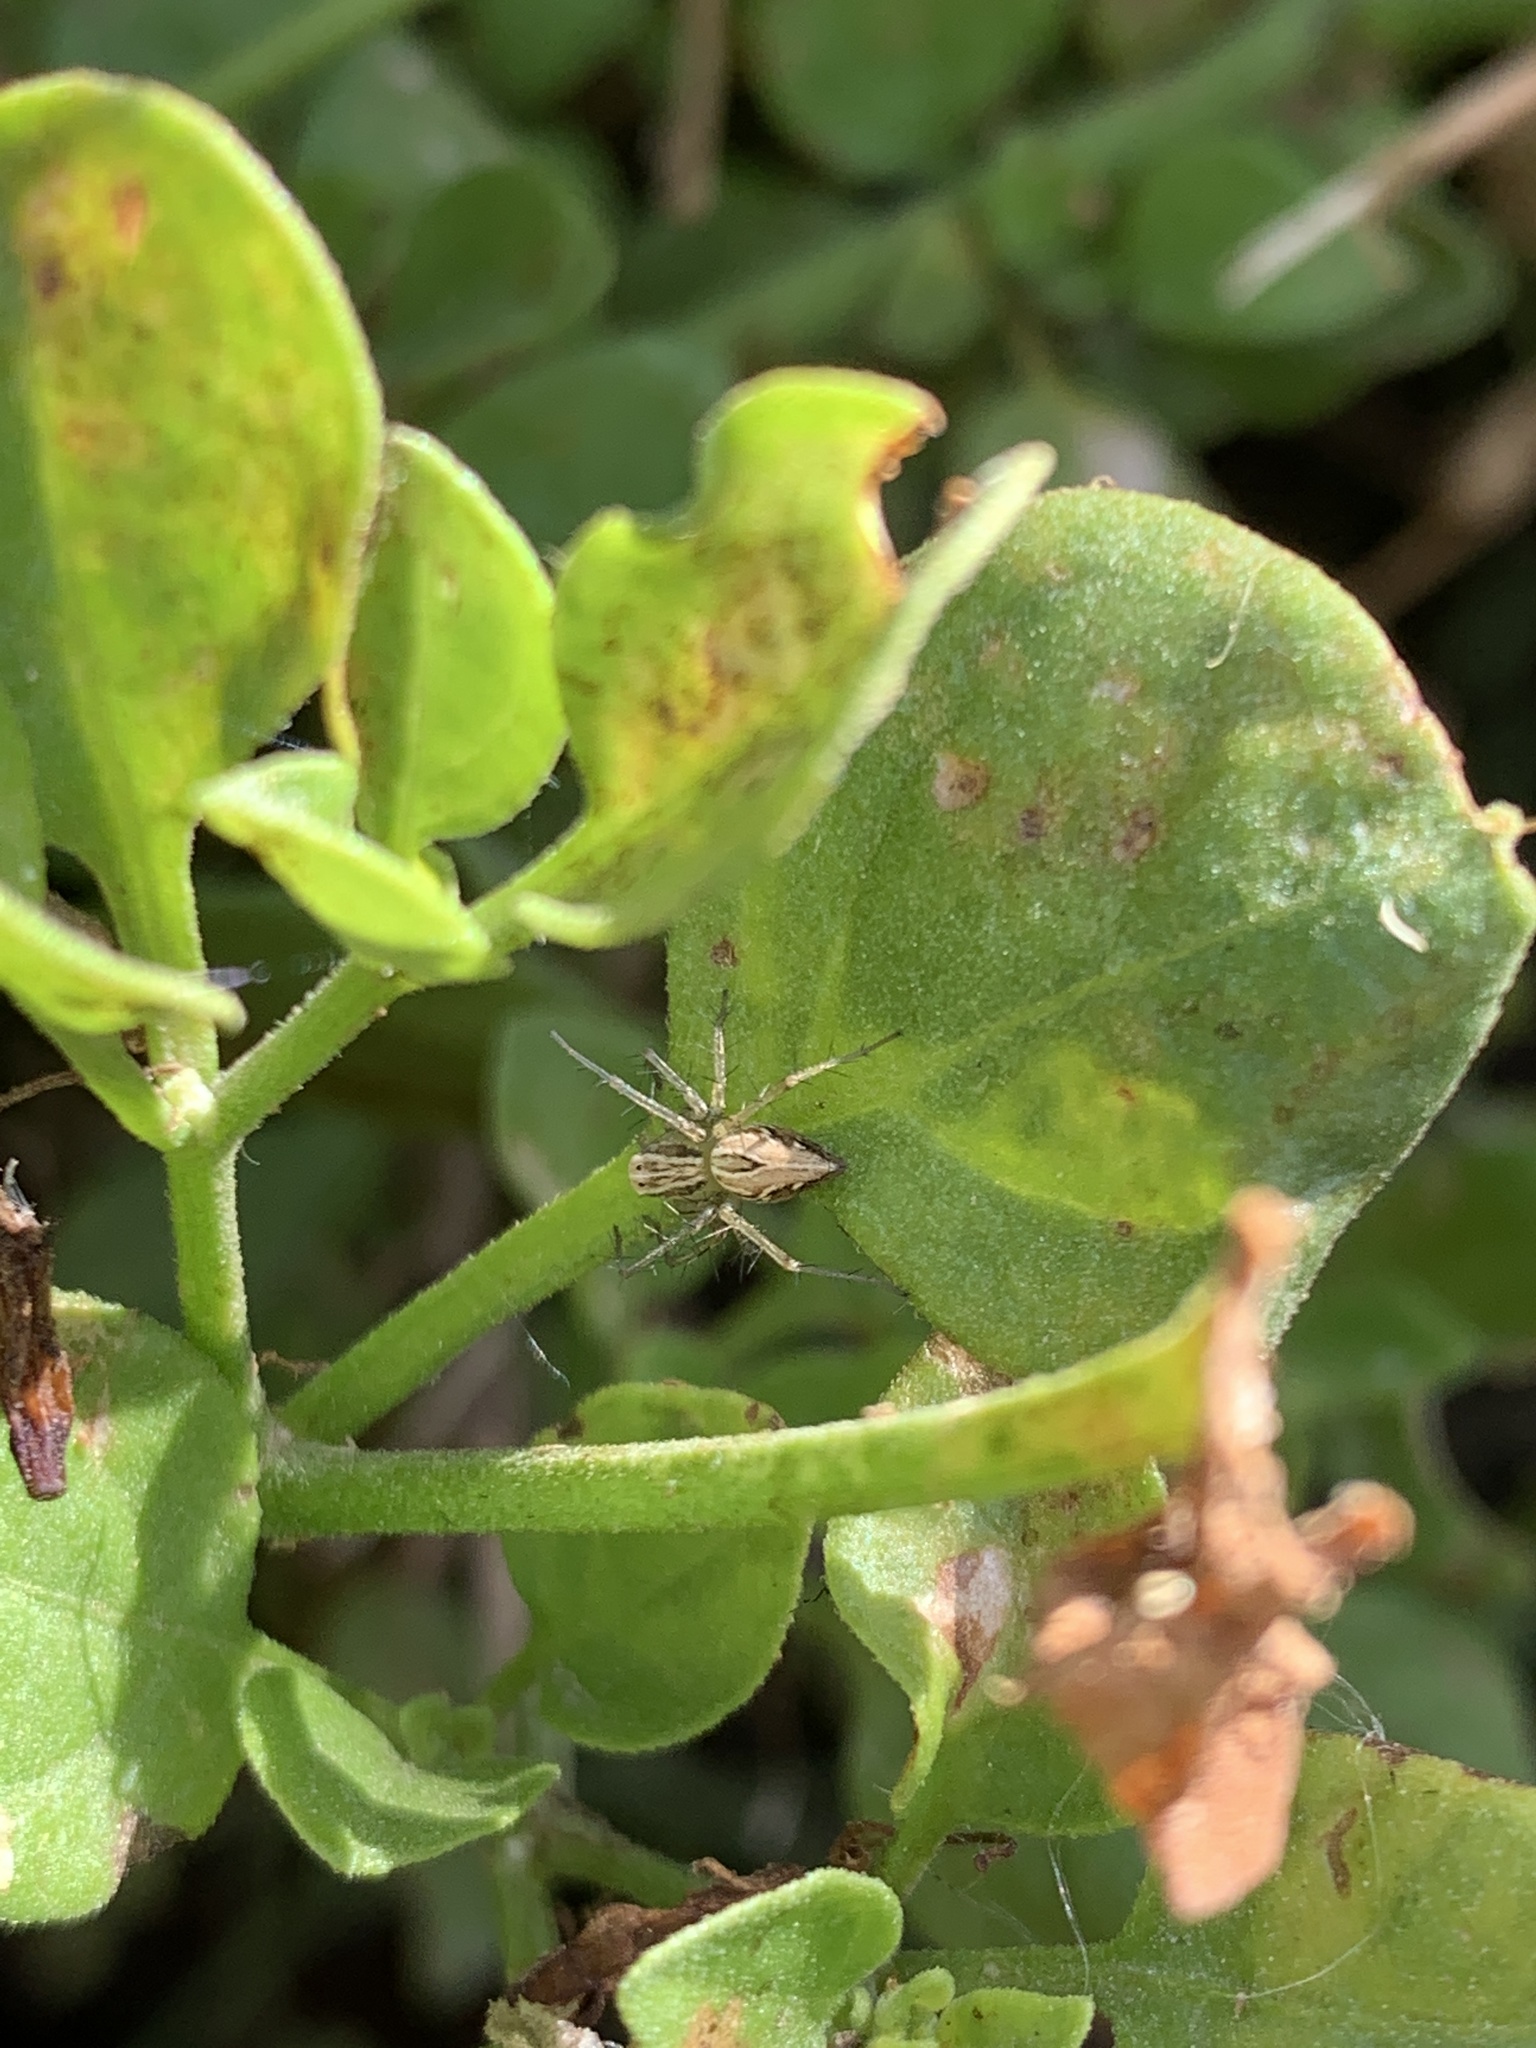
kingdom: Animalia
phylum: Arthropoda
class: Arachnida
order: Araneae
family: Oxyopidae
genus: Oxyopes
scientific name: Oxyopes salticus
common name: Lynx spiders
